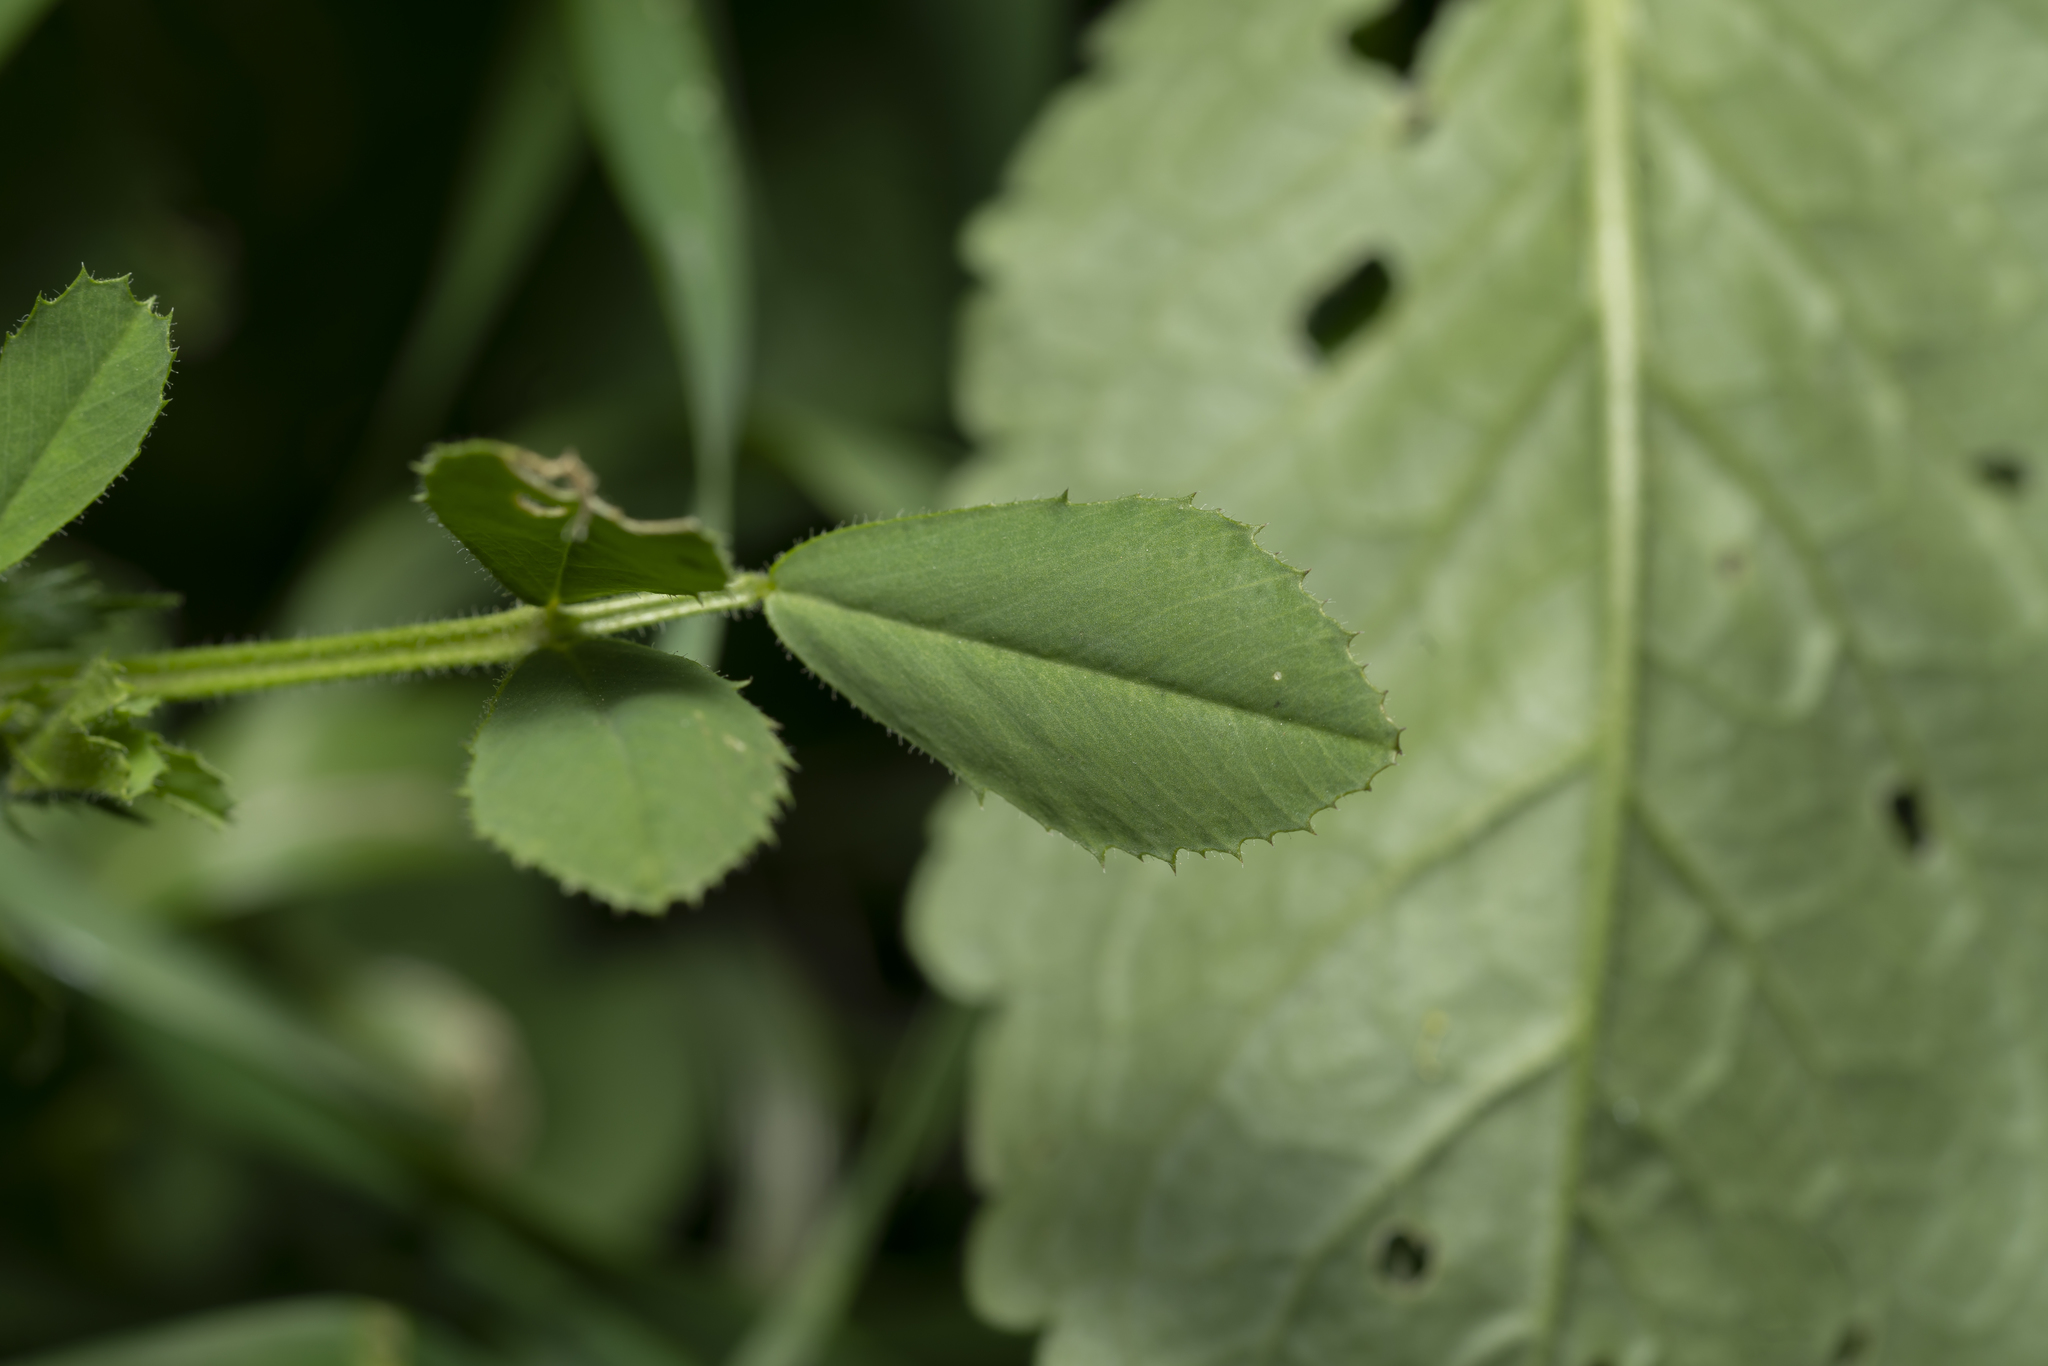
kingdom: Plantae
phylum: Tracheophyta
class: Magnoliopsida
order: Fabales
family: Fabaceae
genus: Medicago
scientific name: Medicago rugosa
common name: Gama medic
